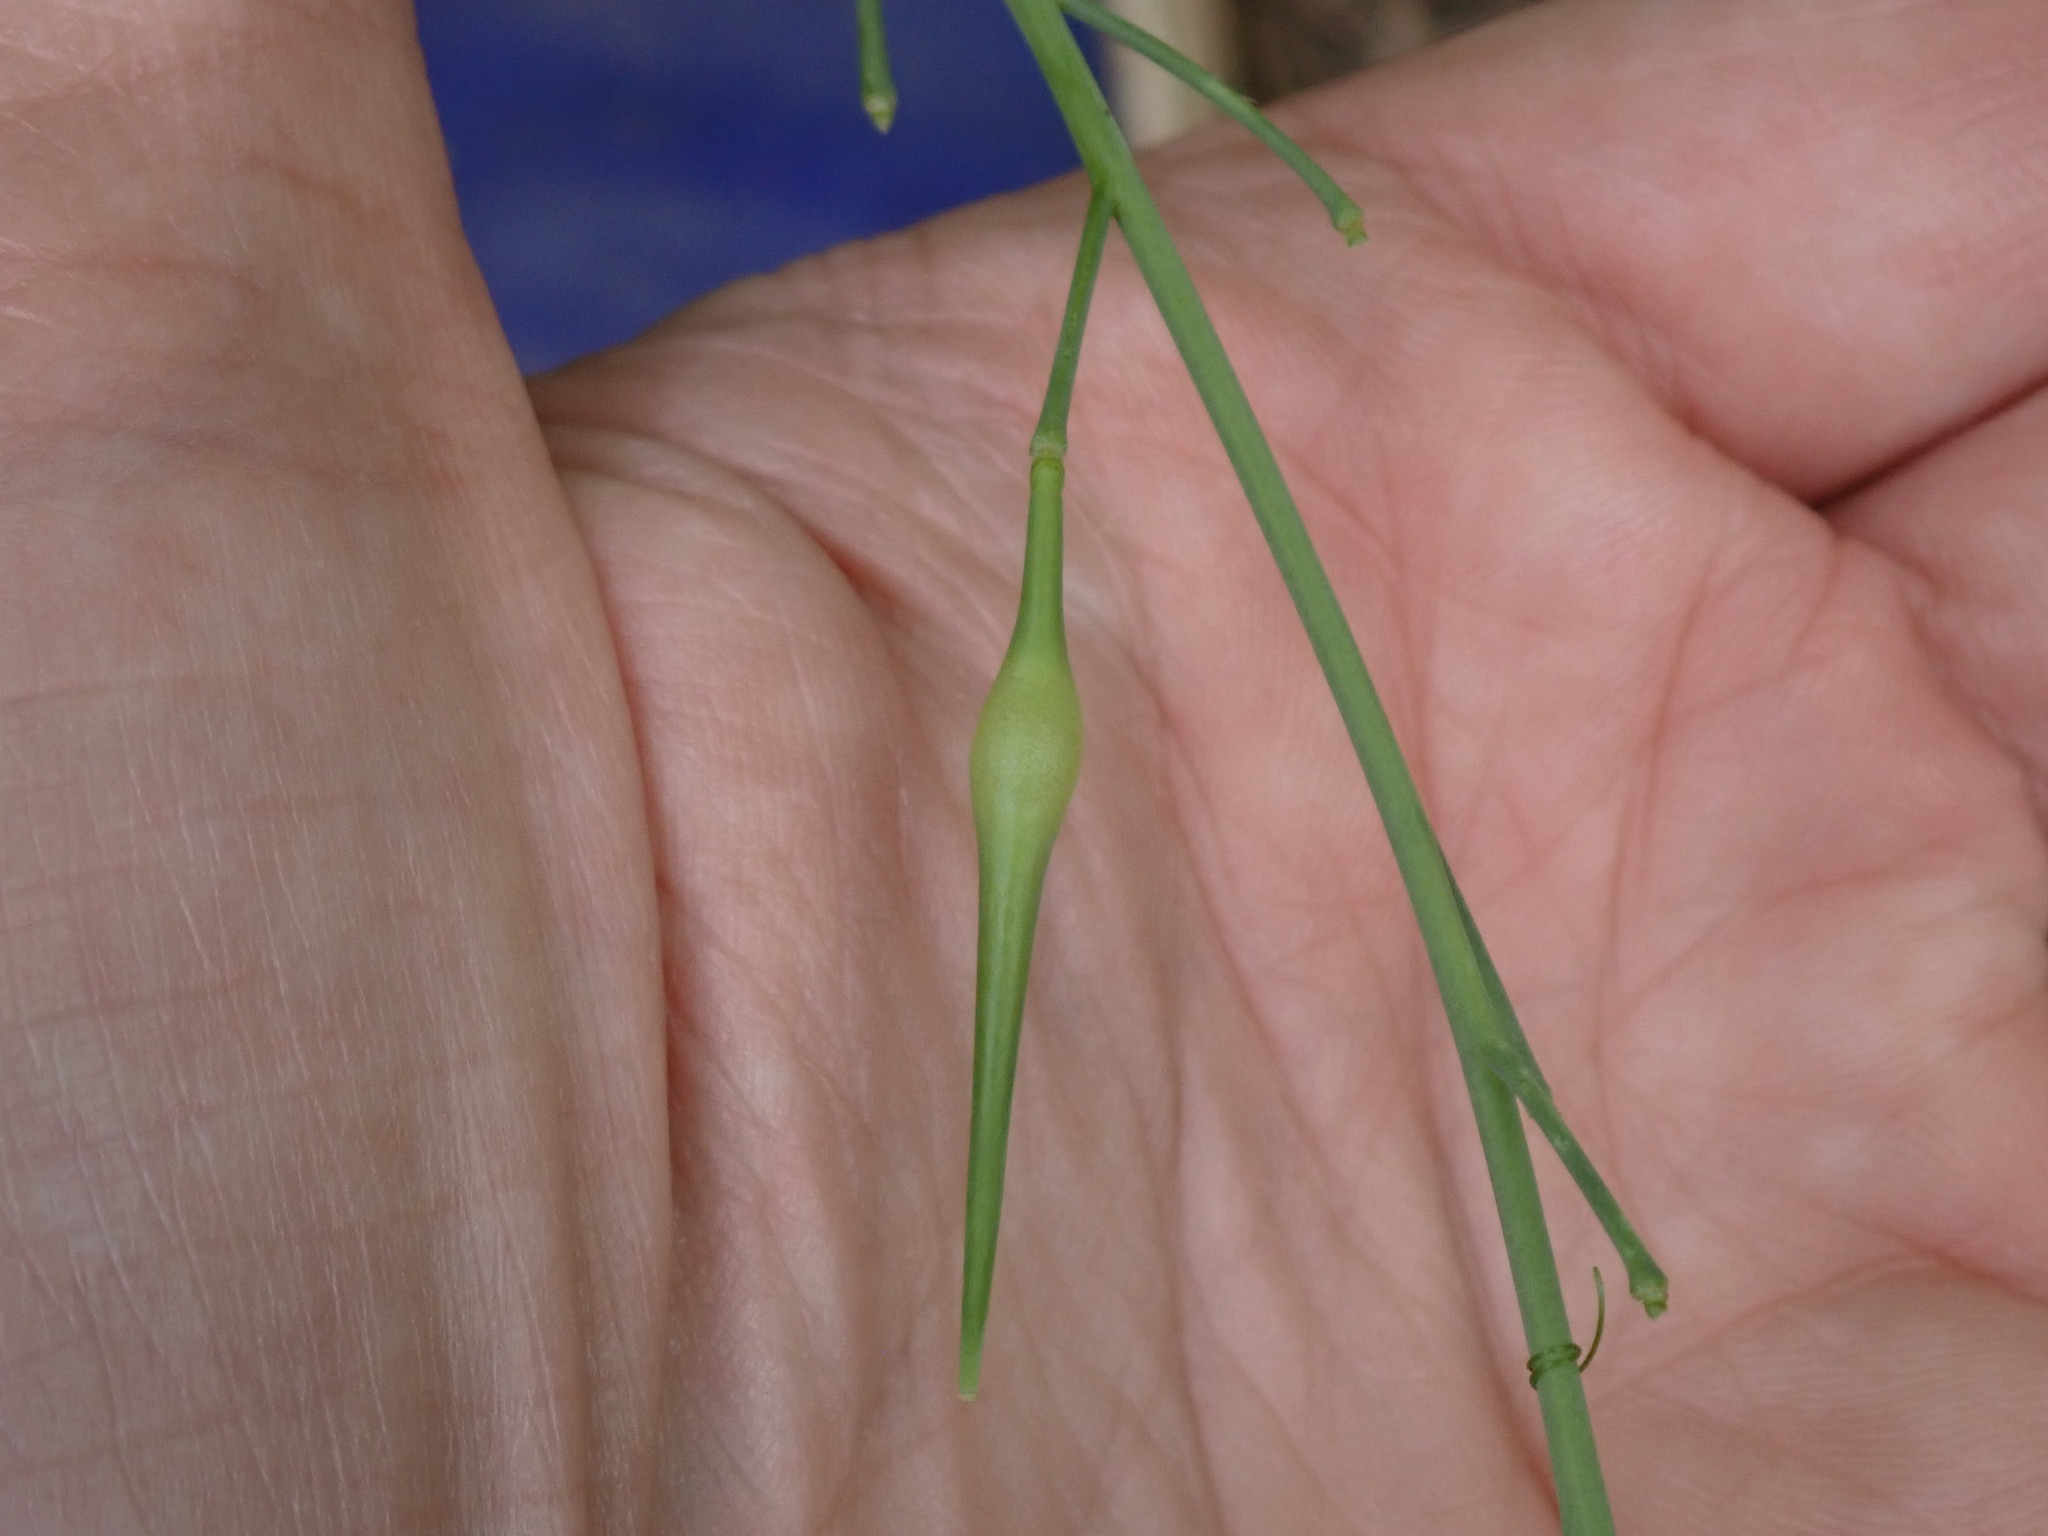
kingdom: Plantae
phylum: Tracheophyta
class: Magnoliopsida
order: Brassicales
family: Brassicaceae
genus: Raphanus
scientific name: Raphanus raphanistrum
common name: Wild radish
